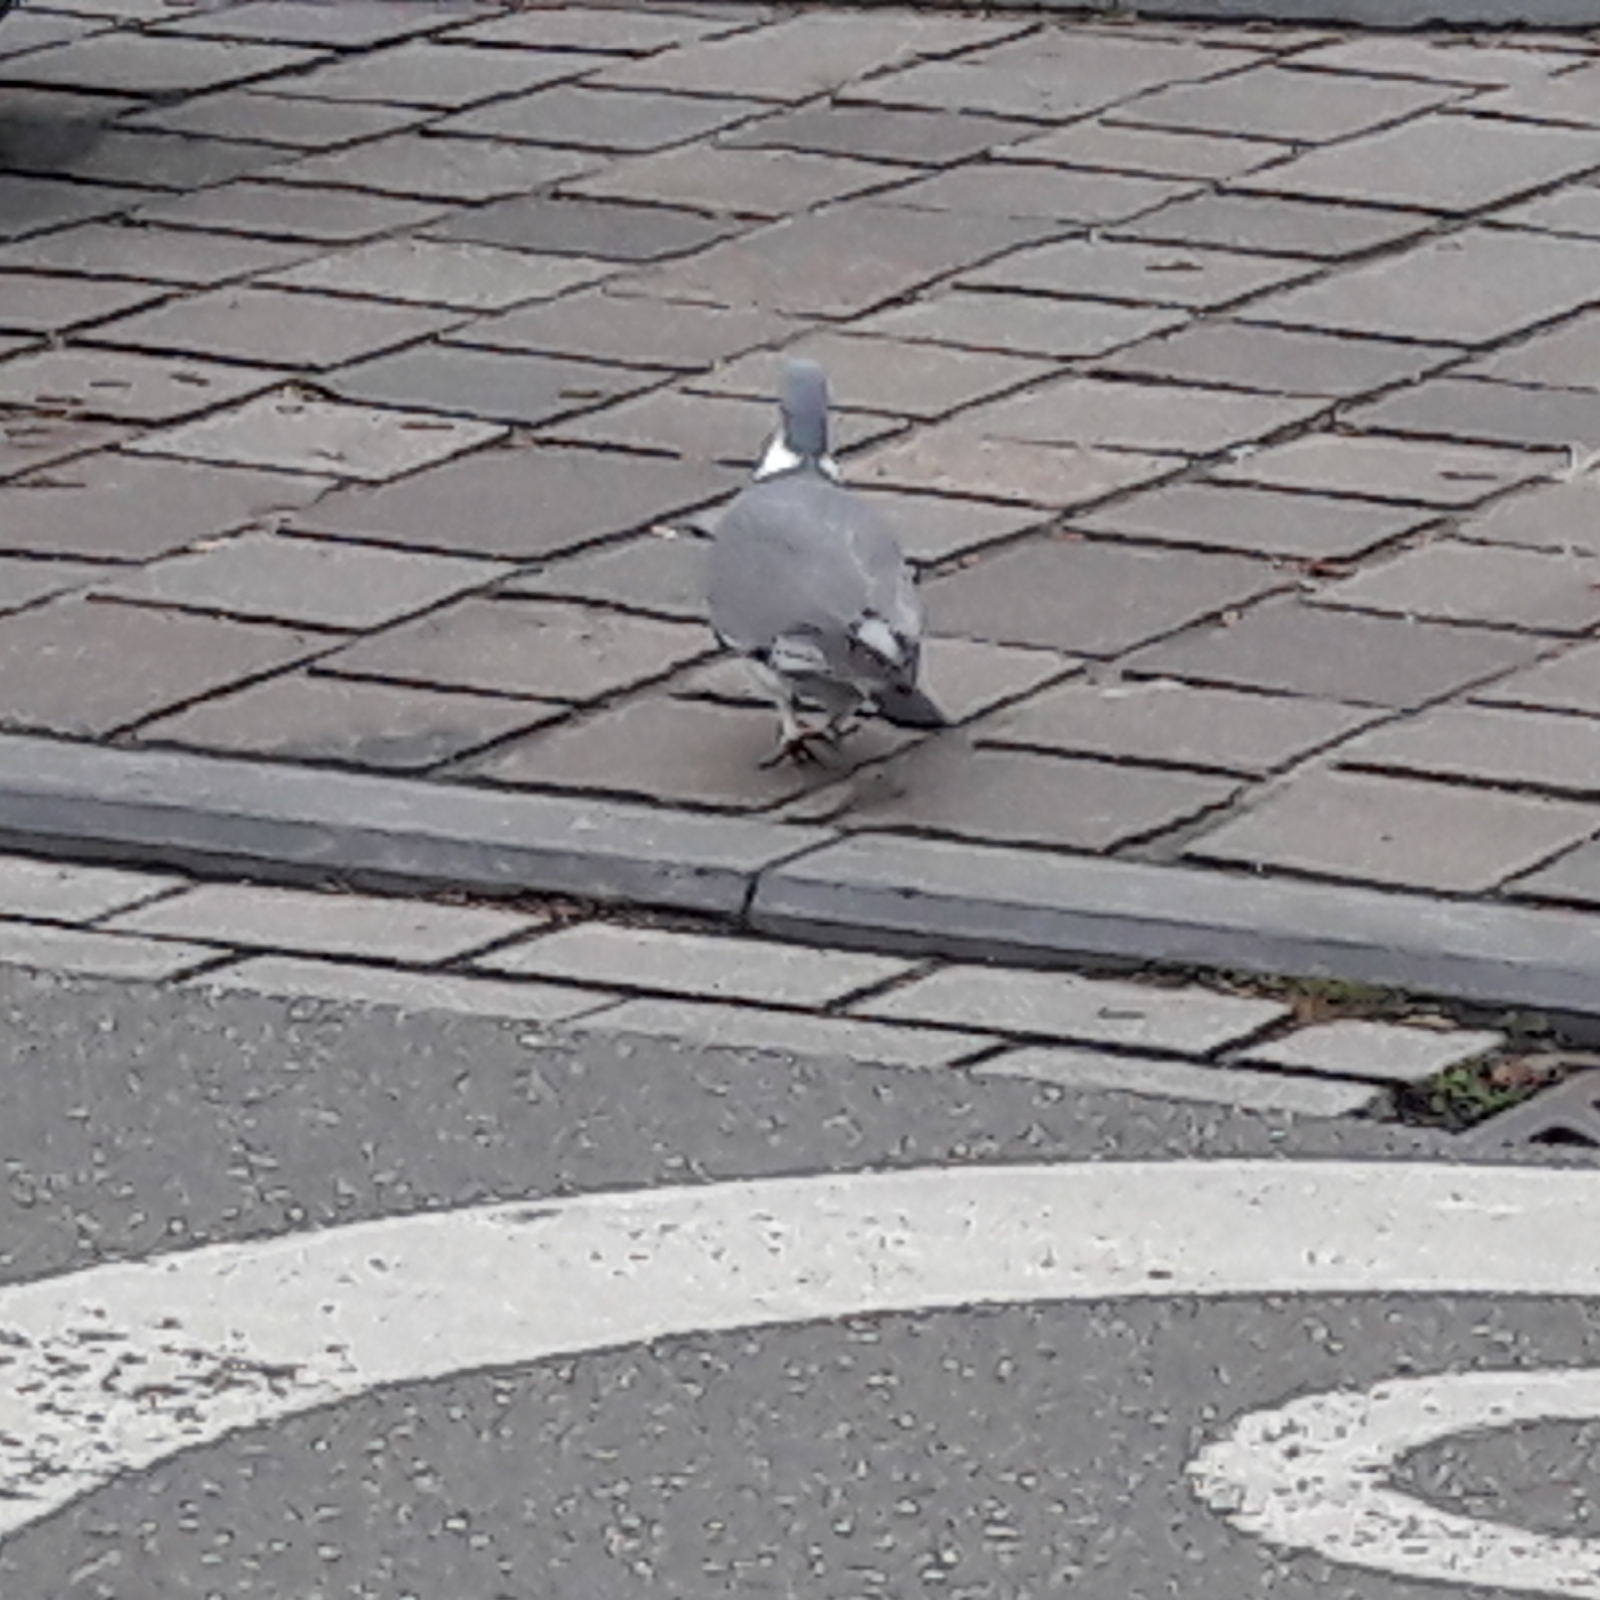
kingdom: Animalia
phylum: Chordata
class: Aves
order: Columbiformes
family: Columbidae
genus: Columba
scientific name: Columba palumbus
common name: Common wood pigeon
